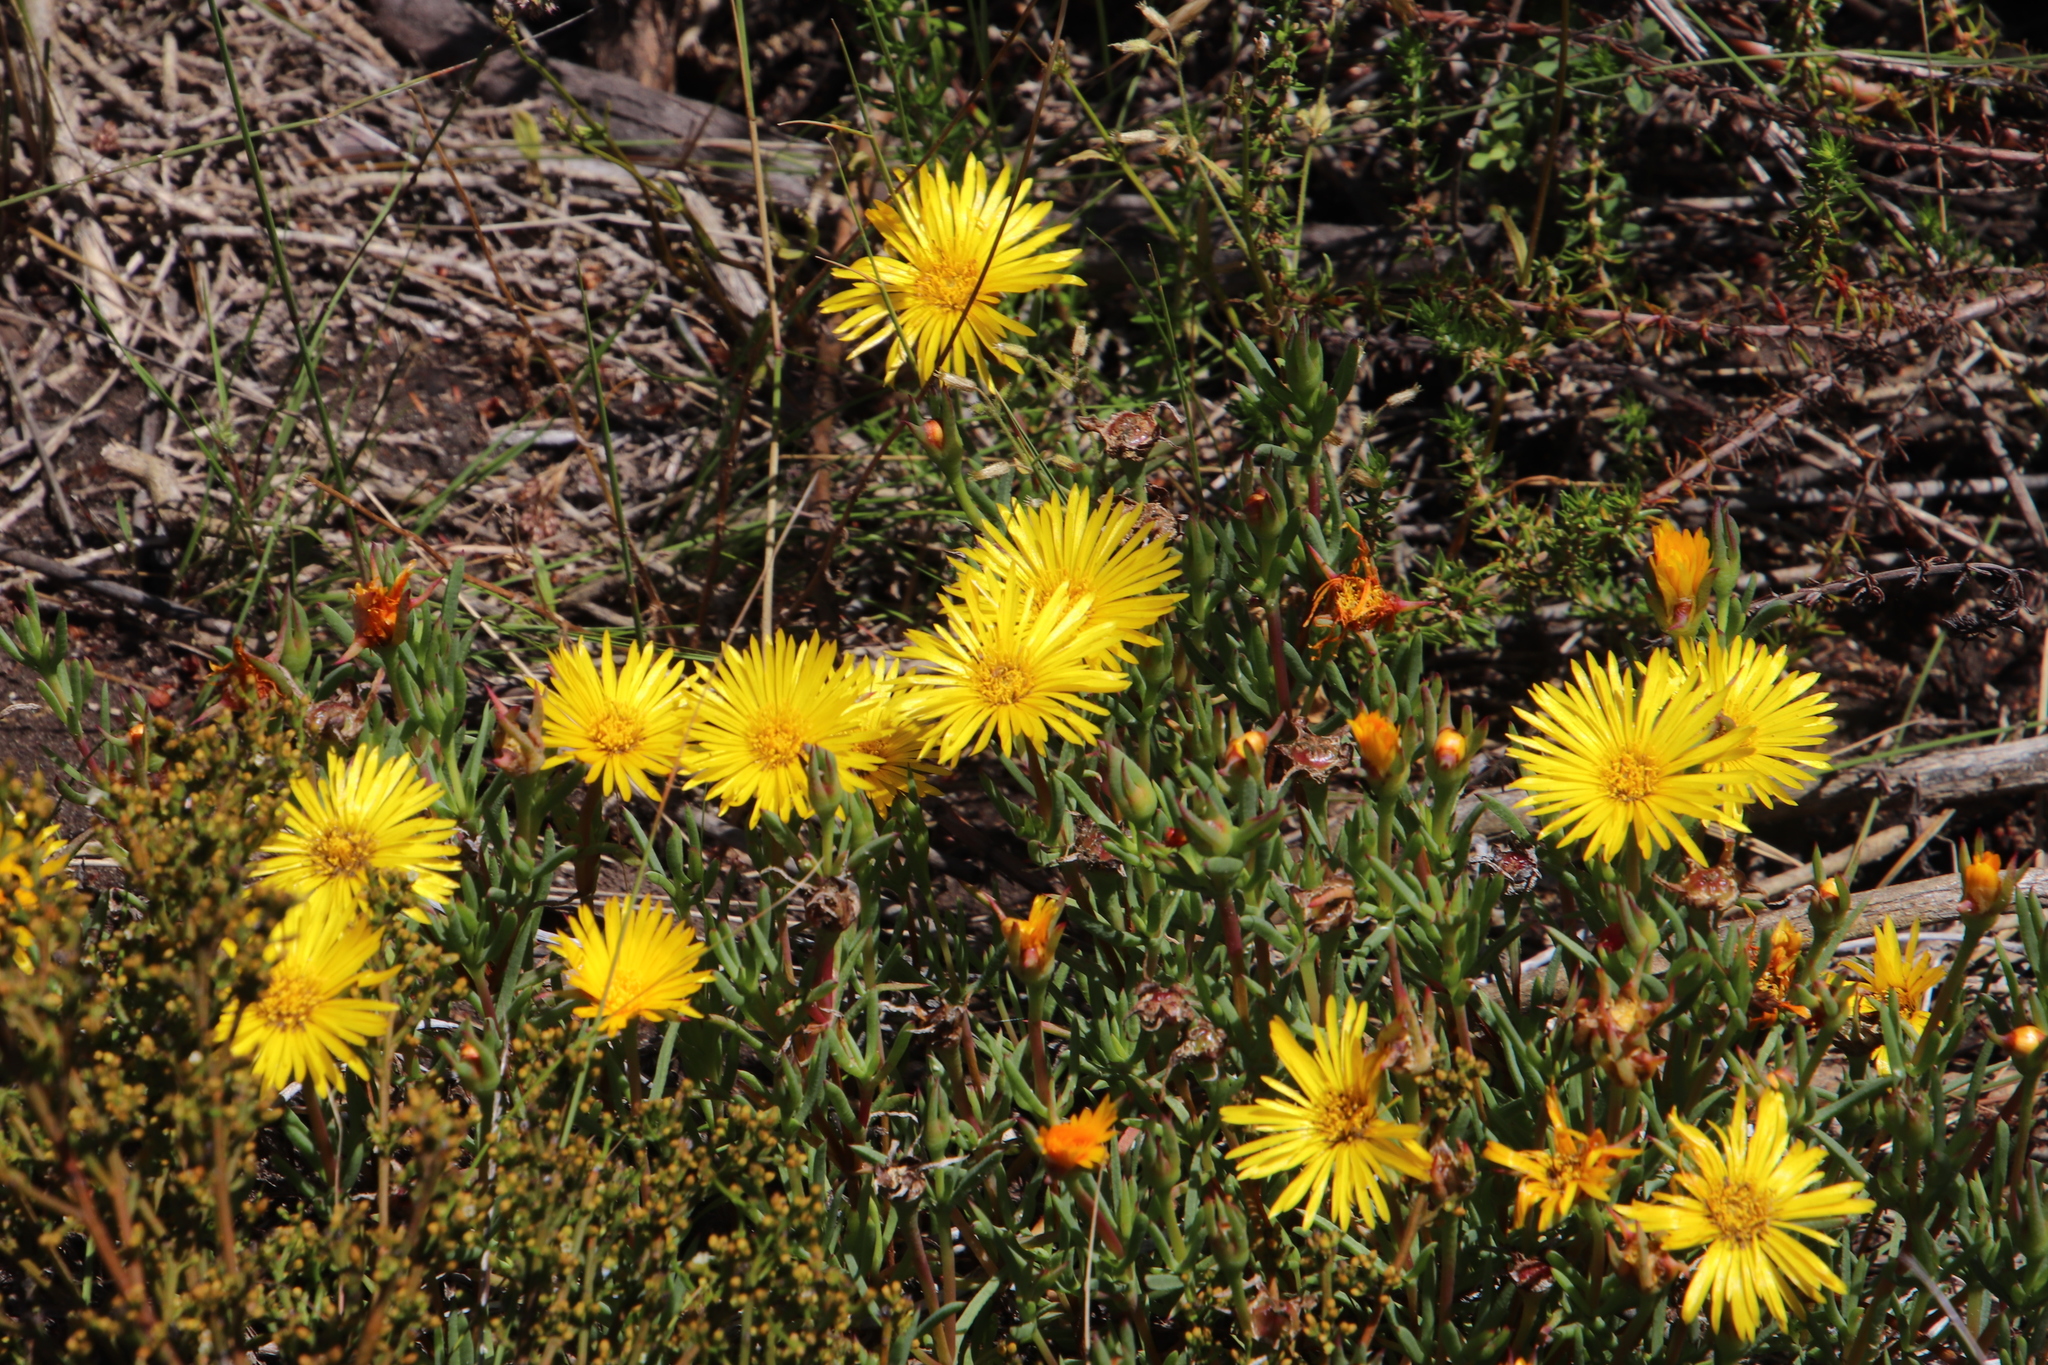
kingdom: Plantae
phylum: Tracheophyta
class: Magnoliopsida
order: Caryophyllales
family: Aizoaceae
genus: Lampranthus
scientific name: Lampranthus bicolor
